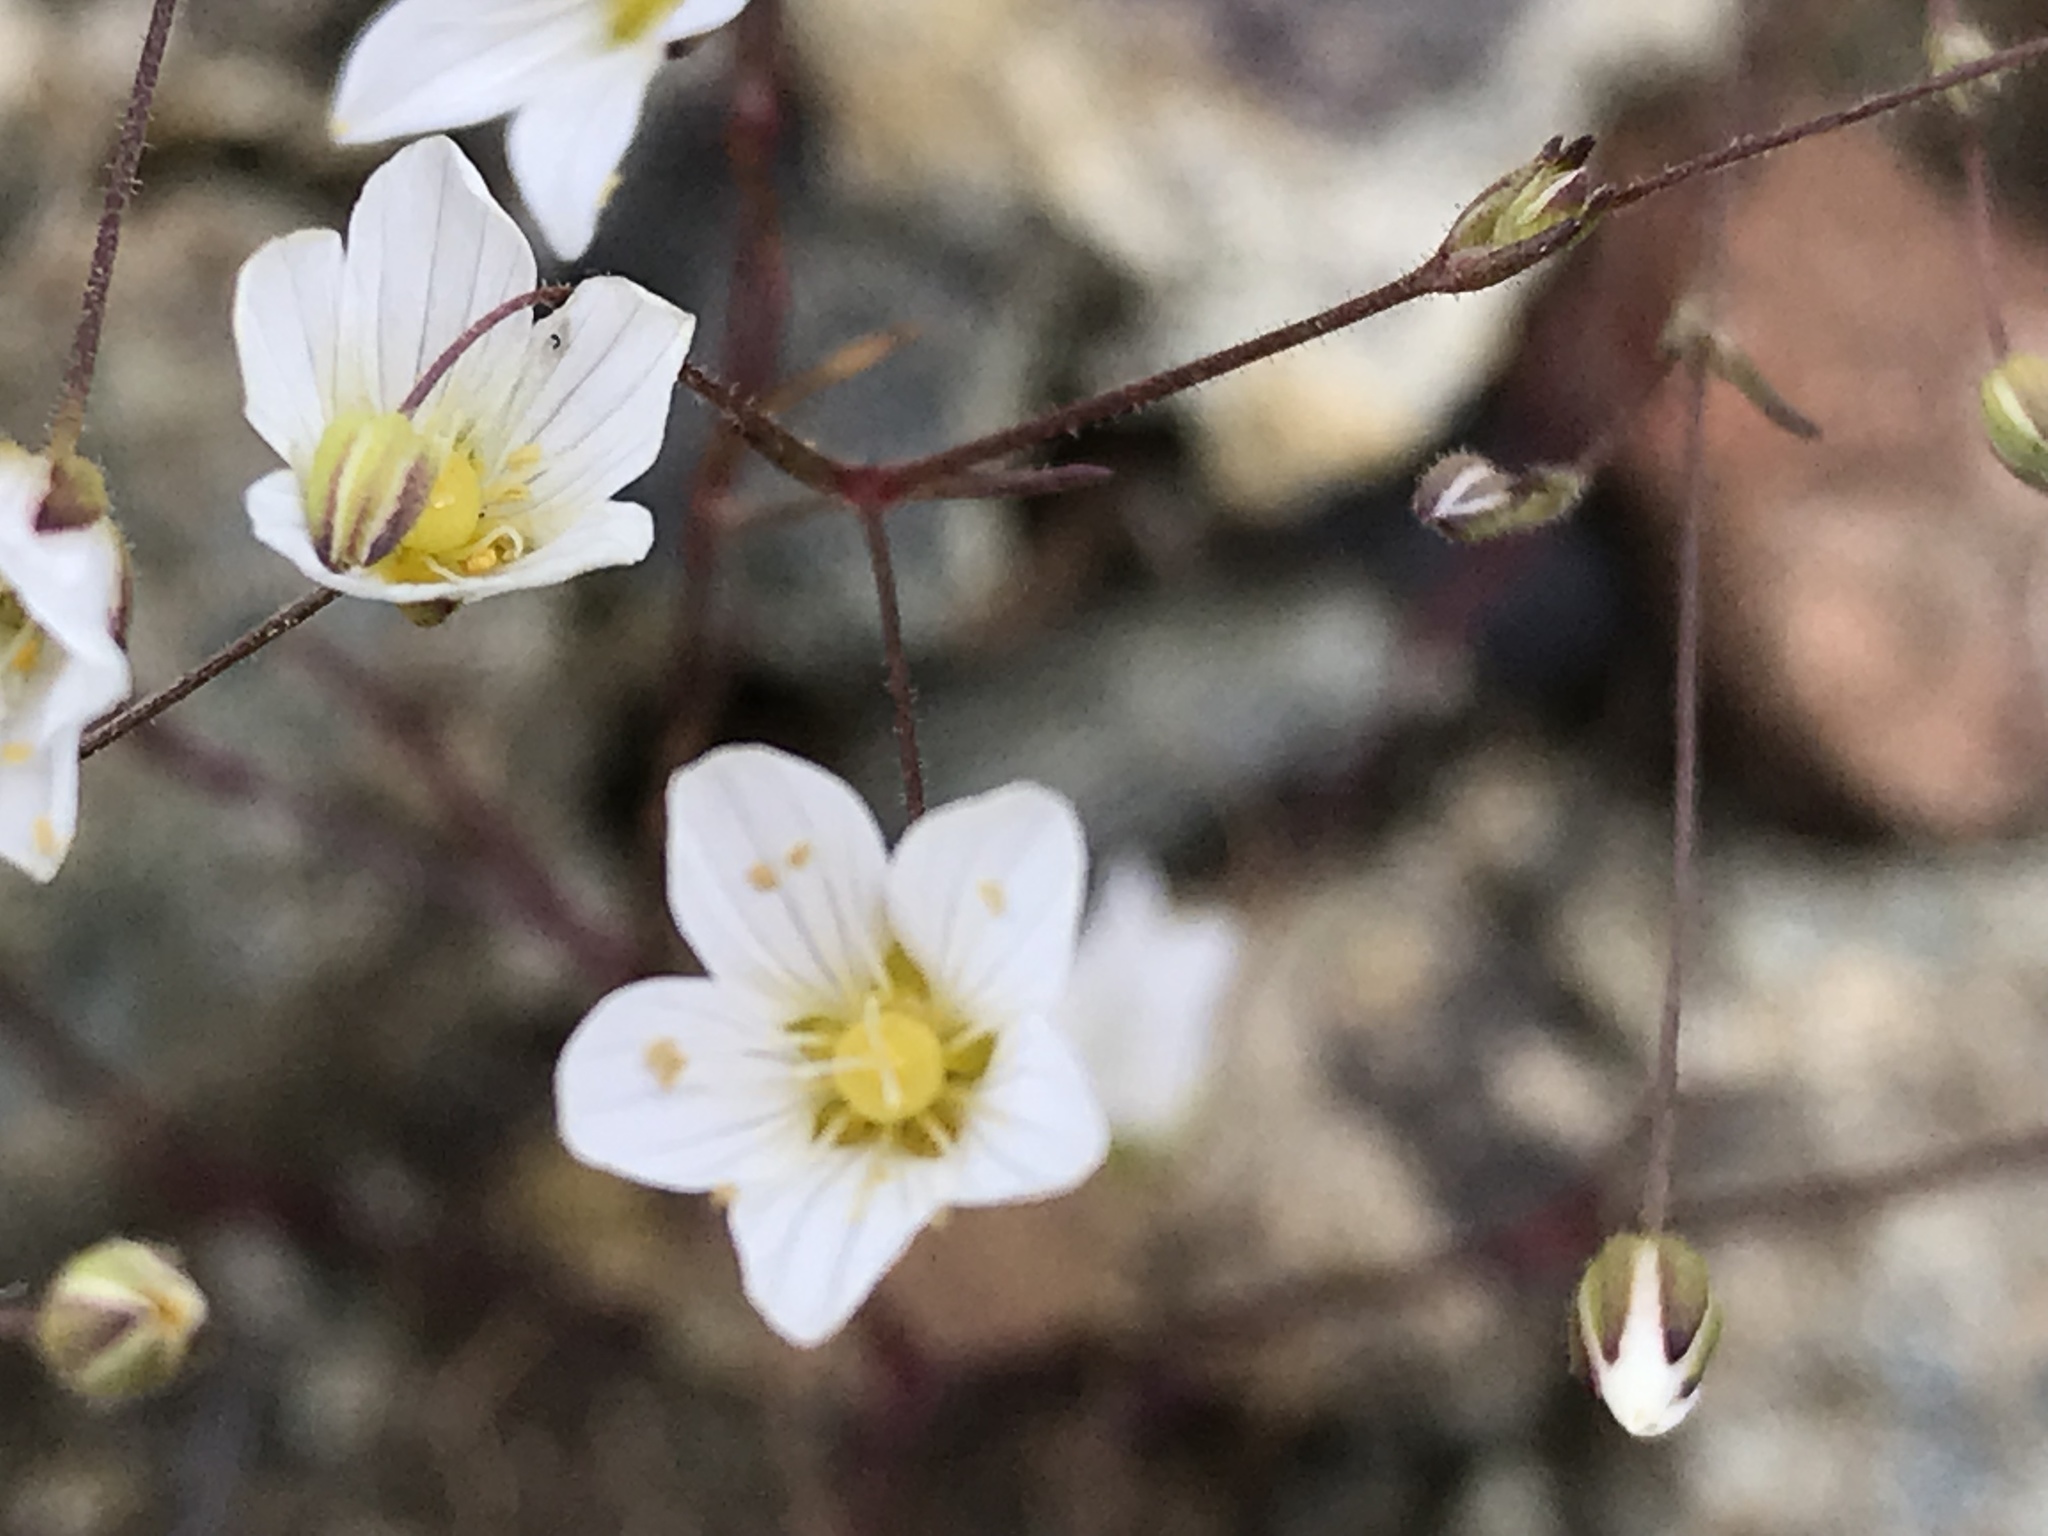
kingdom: Plantae
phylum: Tracheophyta
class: Magnoliopsida
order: Caryophyllales
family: Caryophyllaceae
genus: Sabulina
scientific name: Sabulina douglasii
